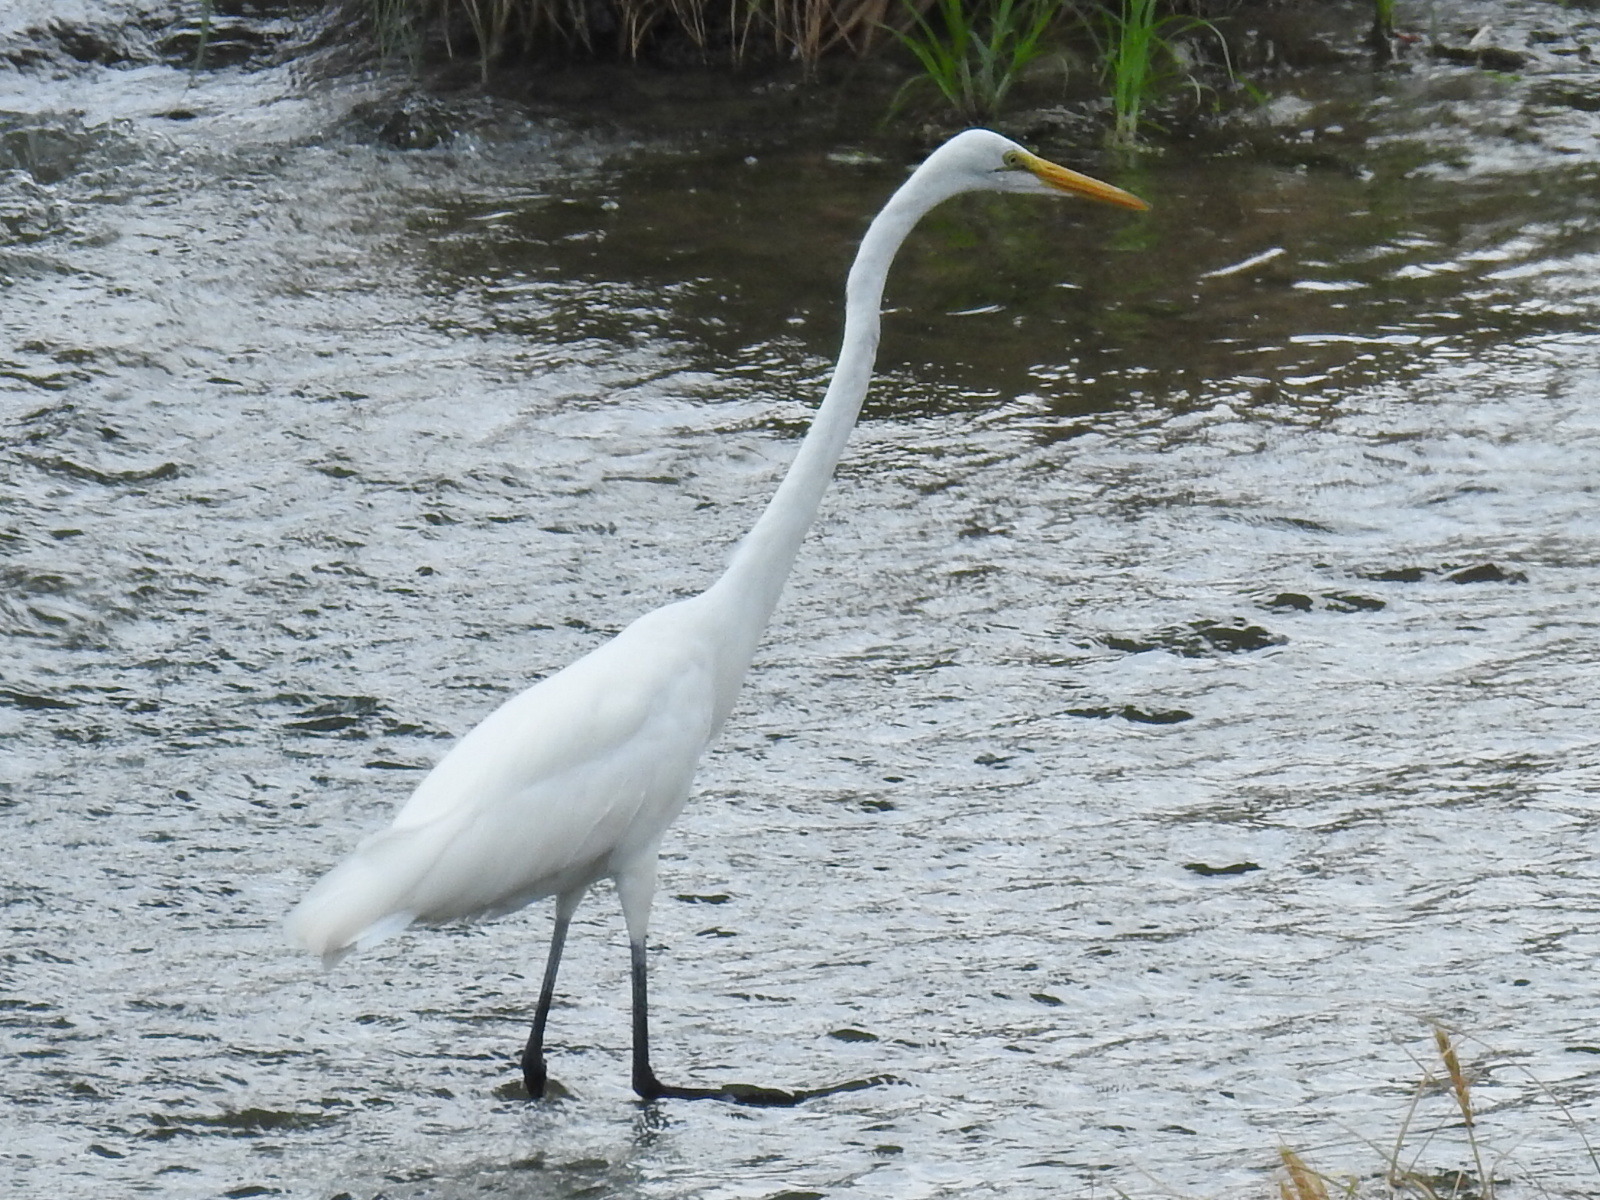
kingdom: Animalia
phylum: Chordata
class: Aves
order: Pelecaniformes
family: Ardeidae
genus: Ardea
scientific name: Ardea alba
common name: Great egret
